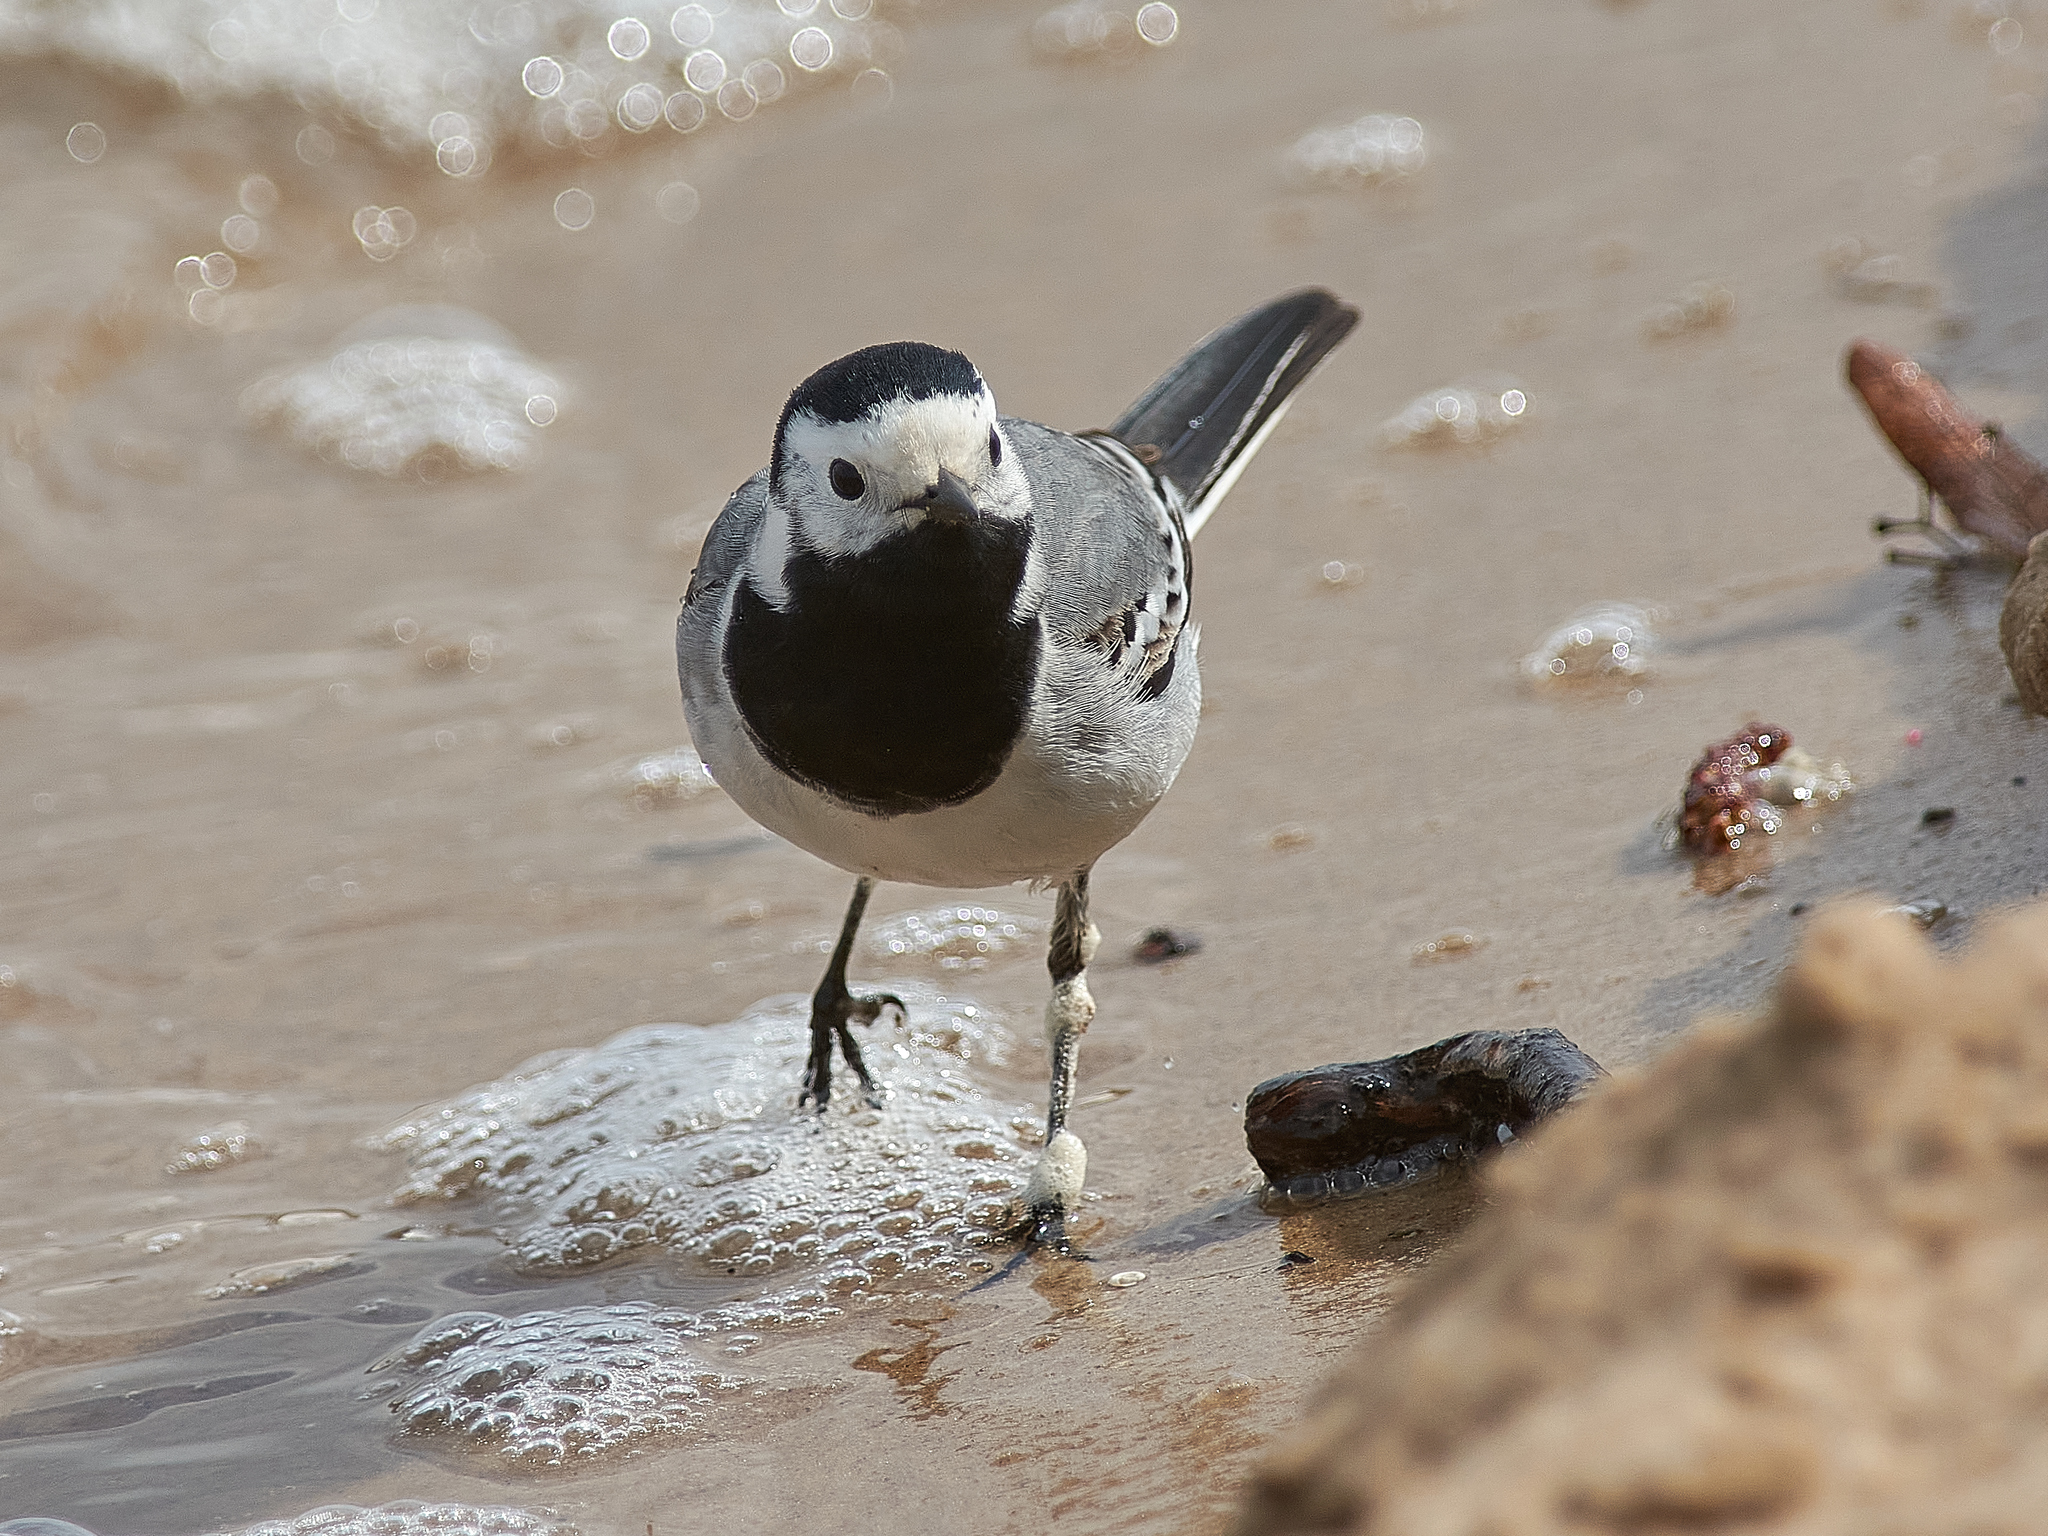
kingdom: Animalia
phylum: Chordata
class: Aves
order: Passeriformes
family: Motacillidae
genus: Motacilla
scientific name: Motacilla alba
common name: White wagtail
